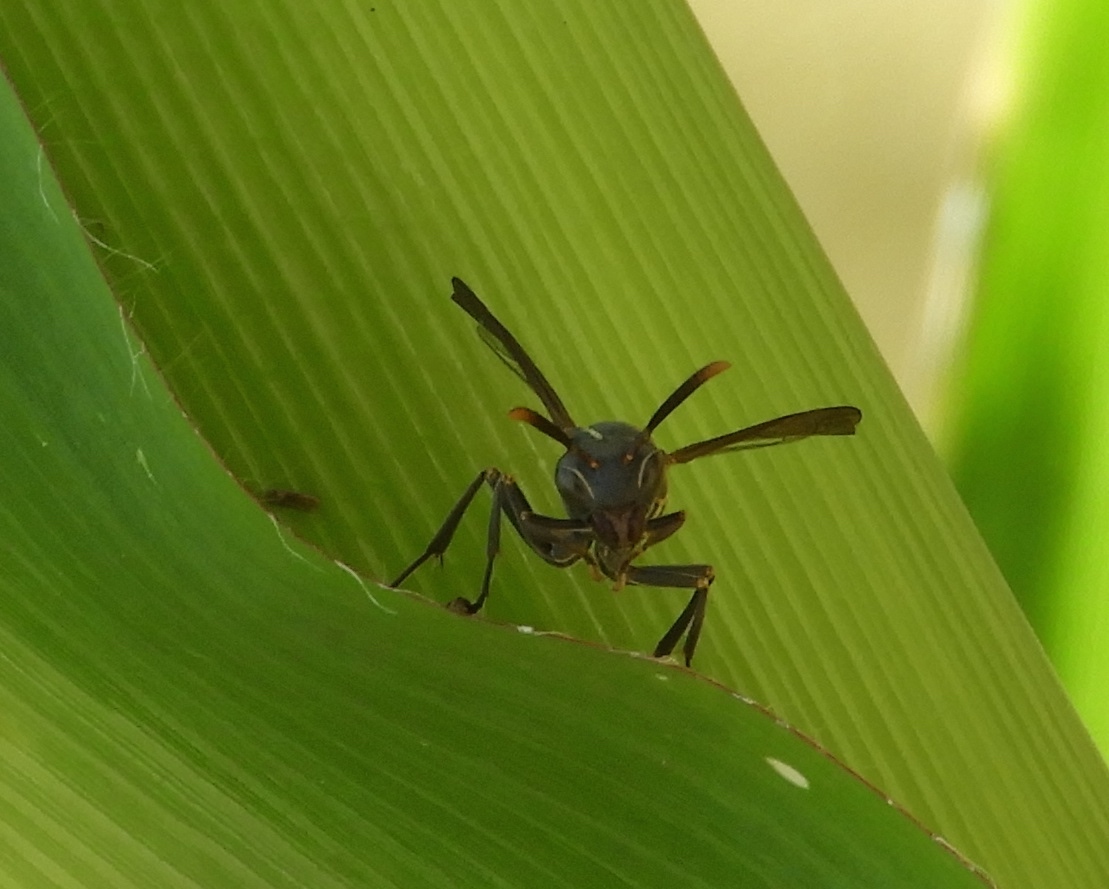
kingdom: Animalia
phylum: Arthropoda
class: Insecta
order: Hymenoptera
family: Vespidae
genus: Mischocyttarus
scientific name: Mischocyttarus
